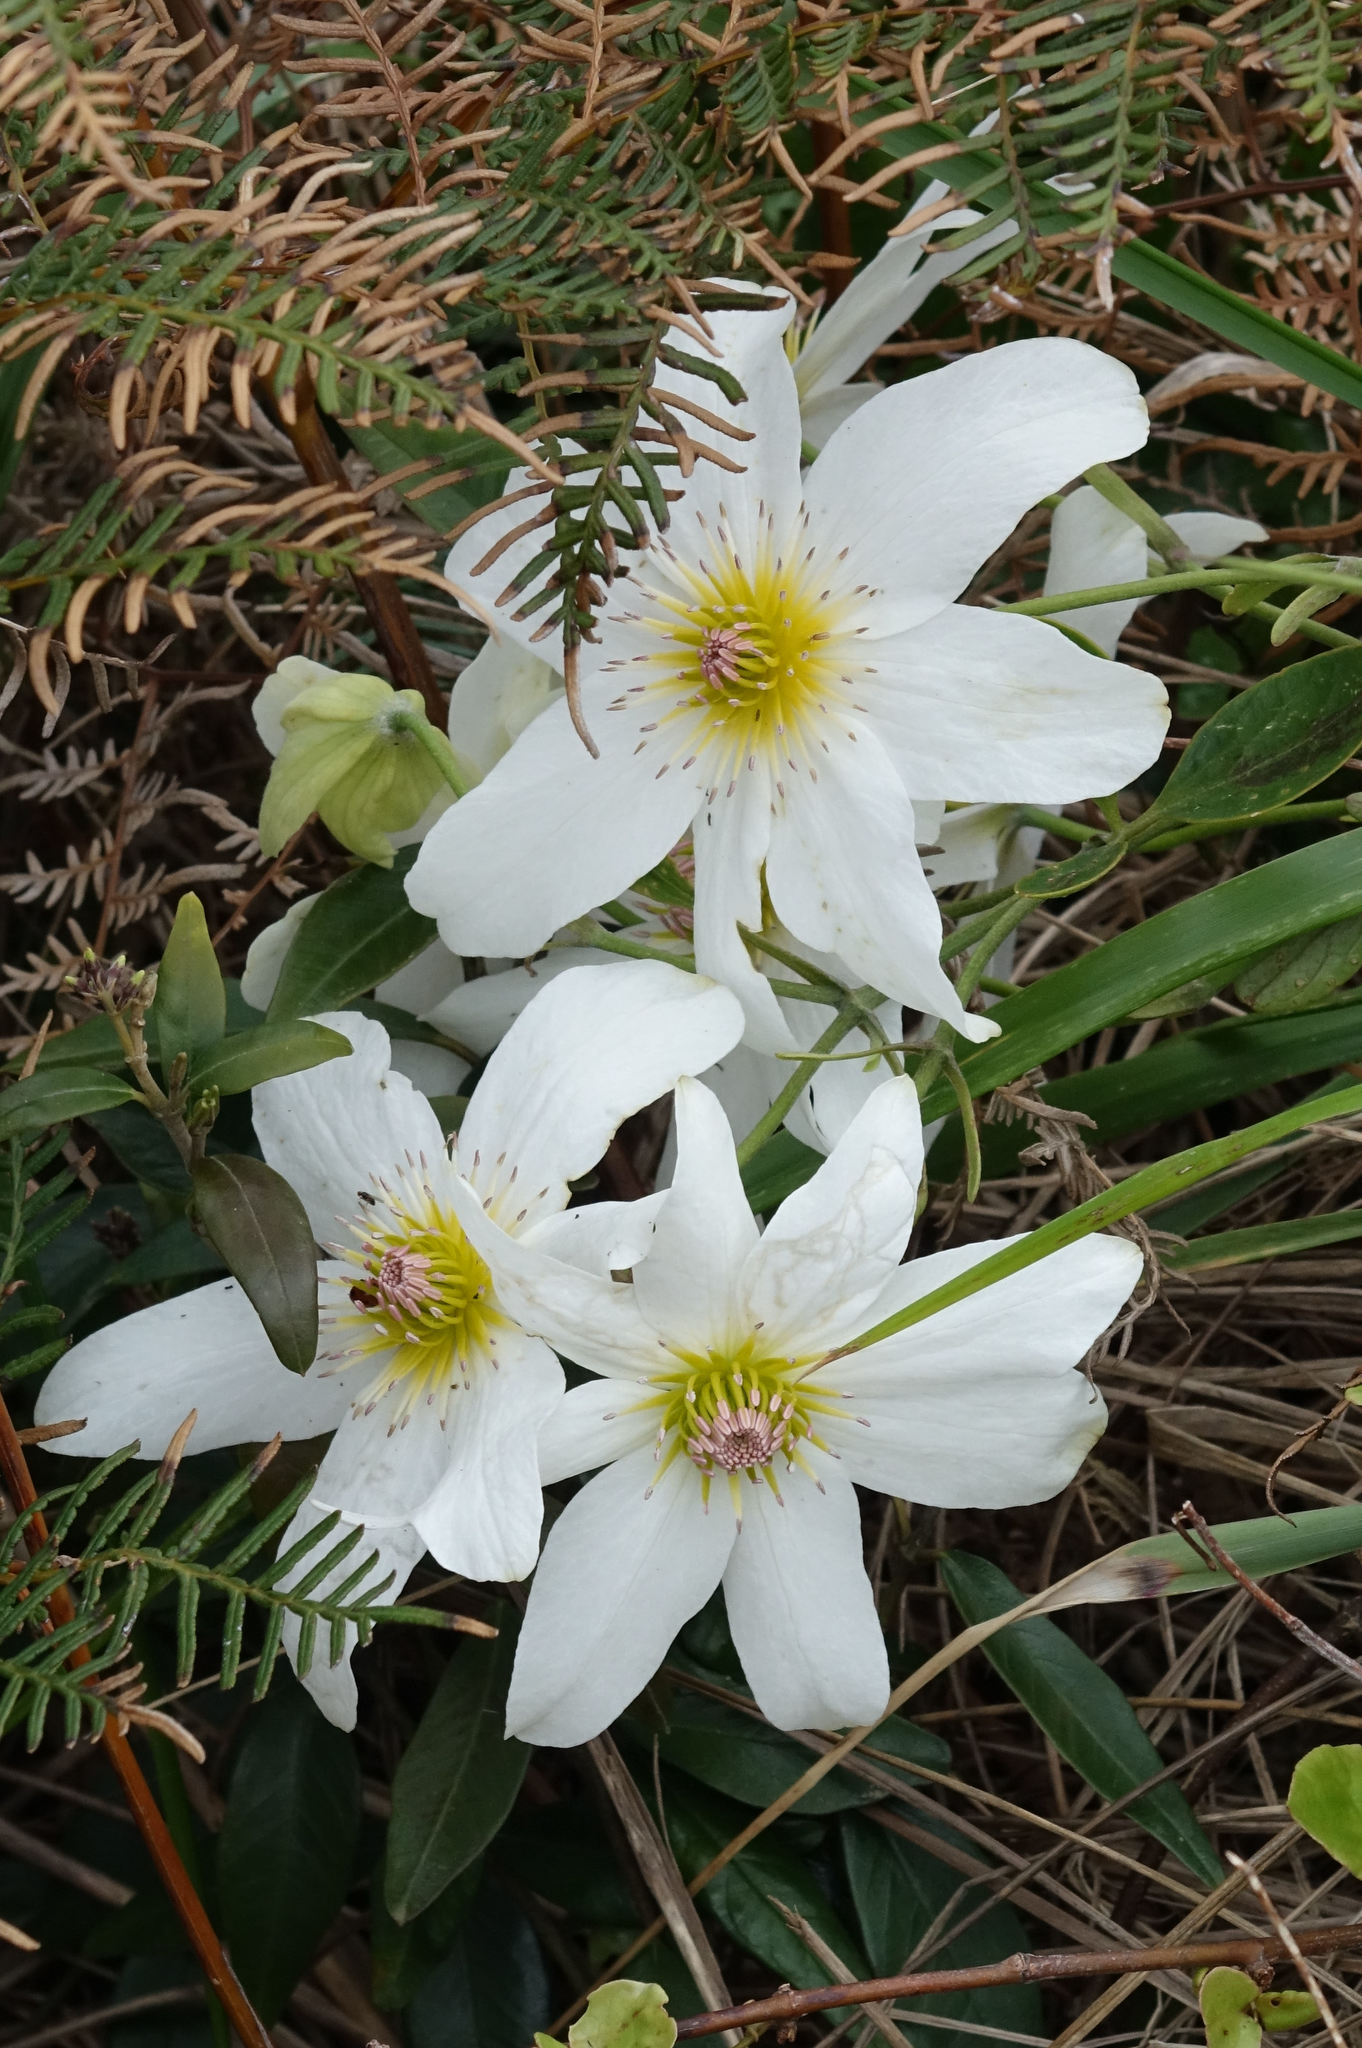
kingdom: Plantae
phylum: Tracheophyta
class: Magnoliopsida
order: Ranunculales
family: Ranunculaceae
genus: Clematis
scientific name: Clematis paniculata
